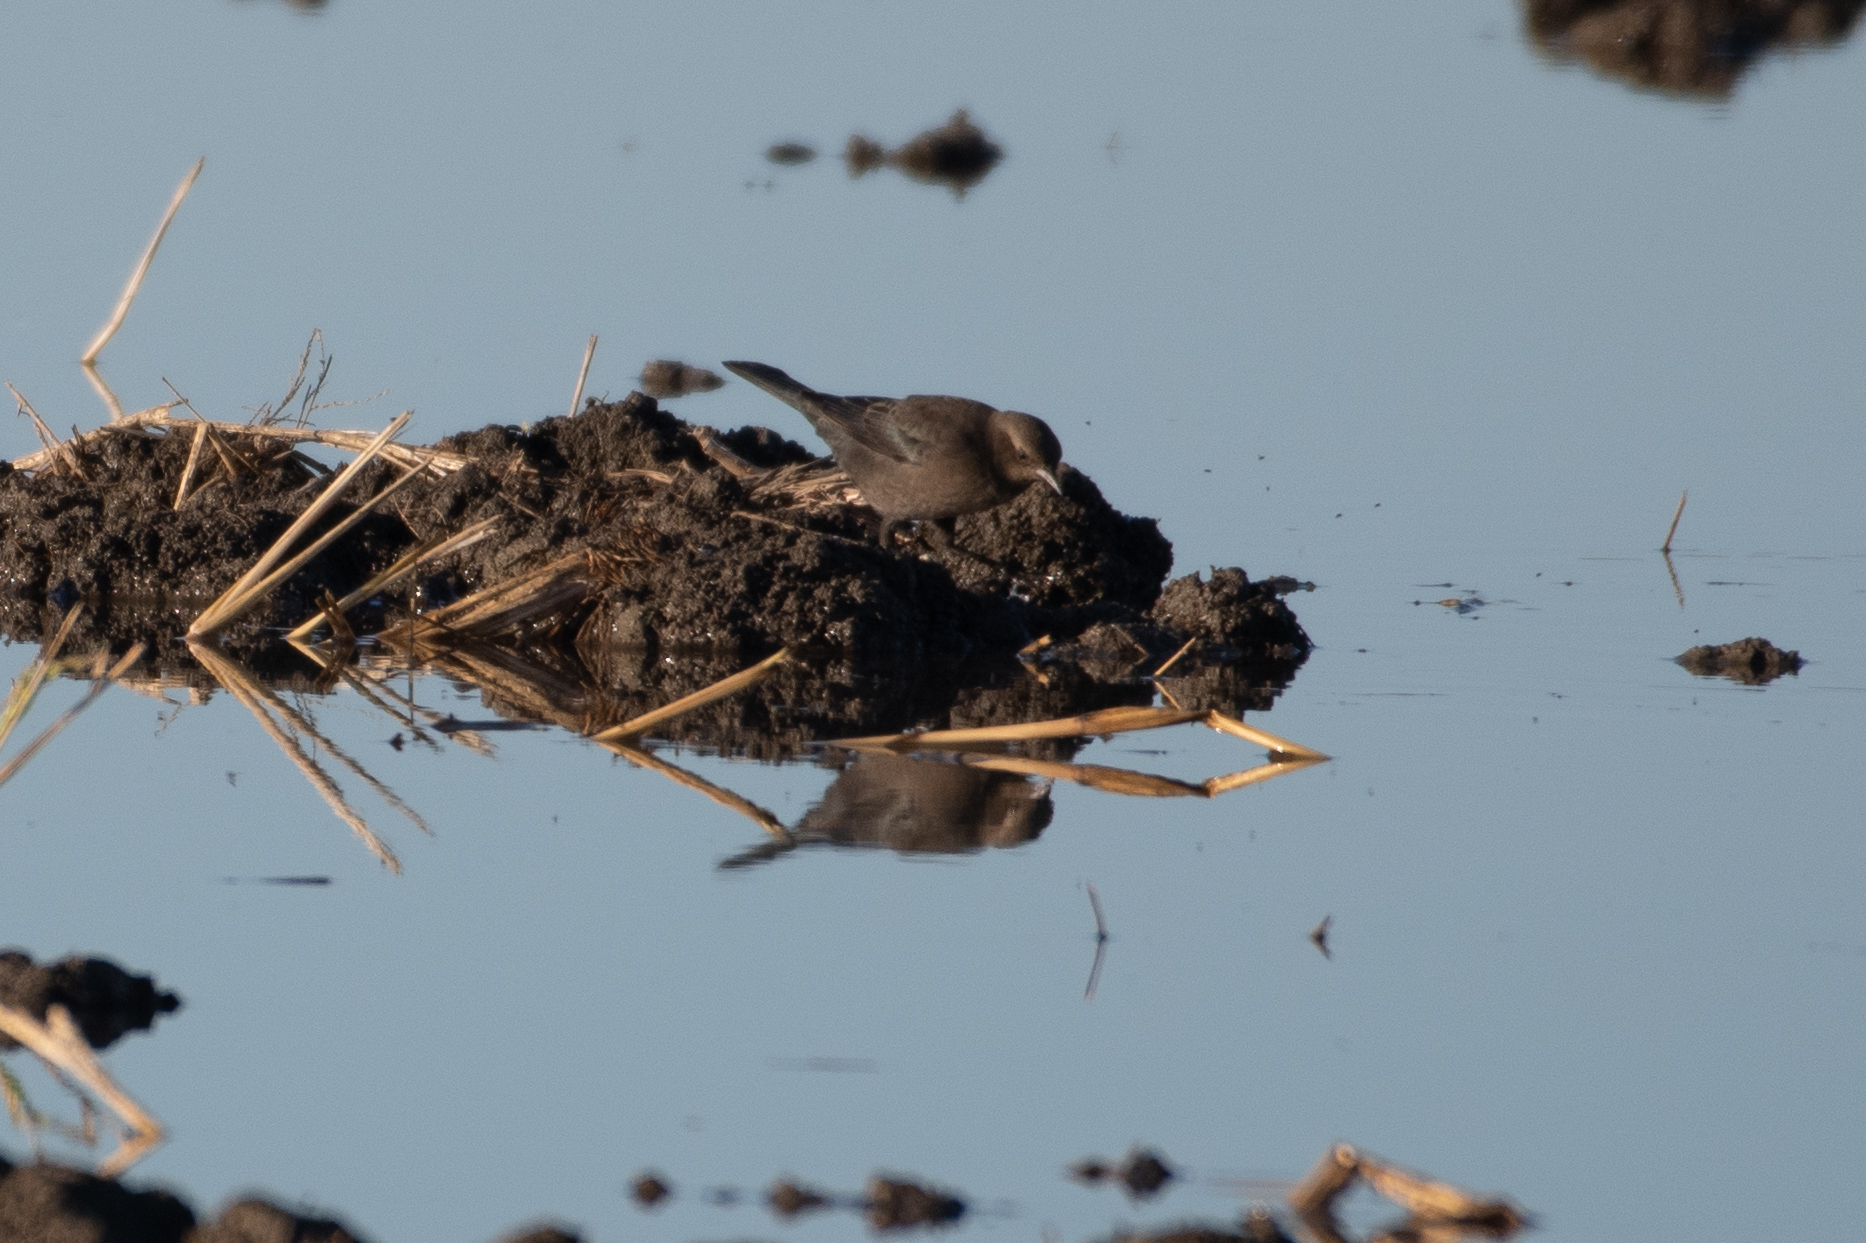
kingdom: Animalia
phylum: Chordata
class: Aves
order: Passeriformes
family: Icteridae
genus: Euphagus
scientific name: Euphagus cyanocephalus
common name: Brewer's blackbird
